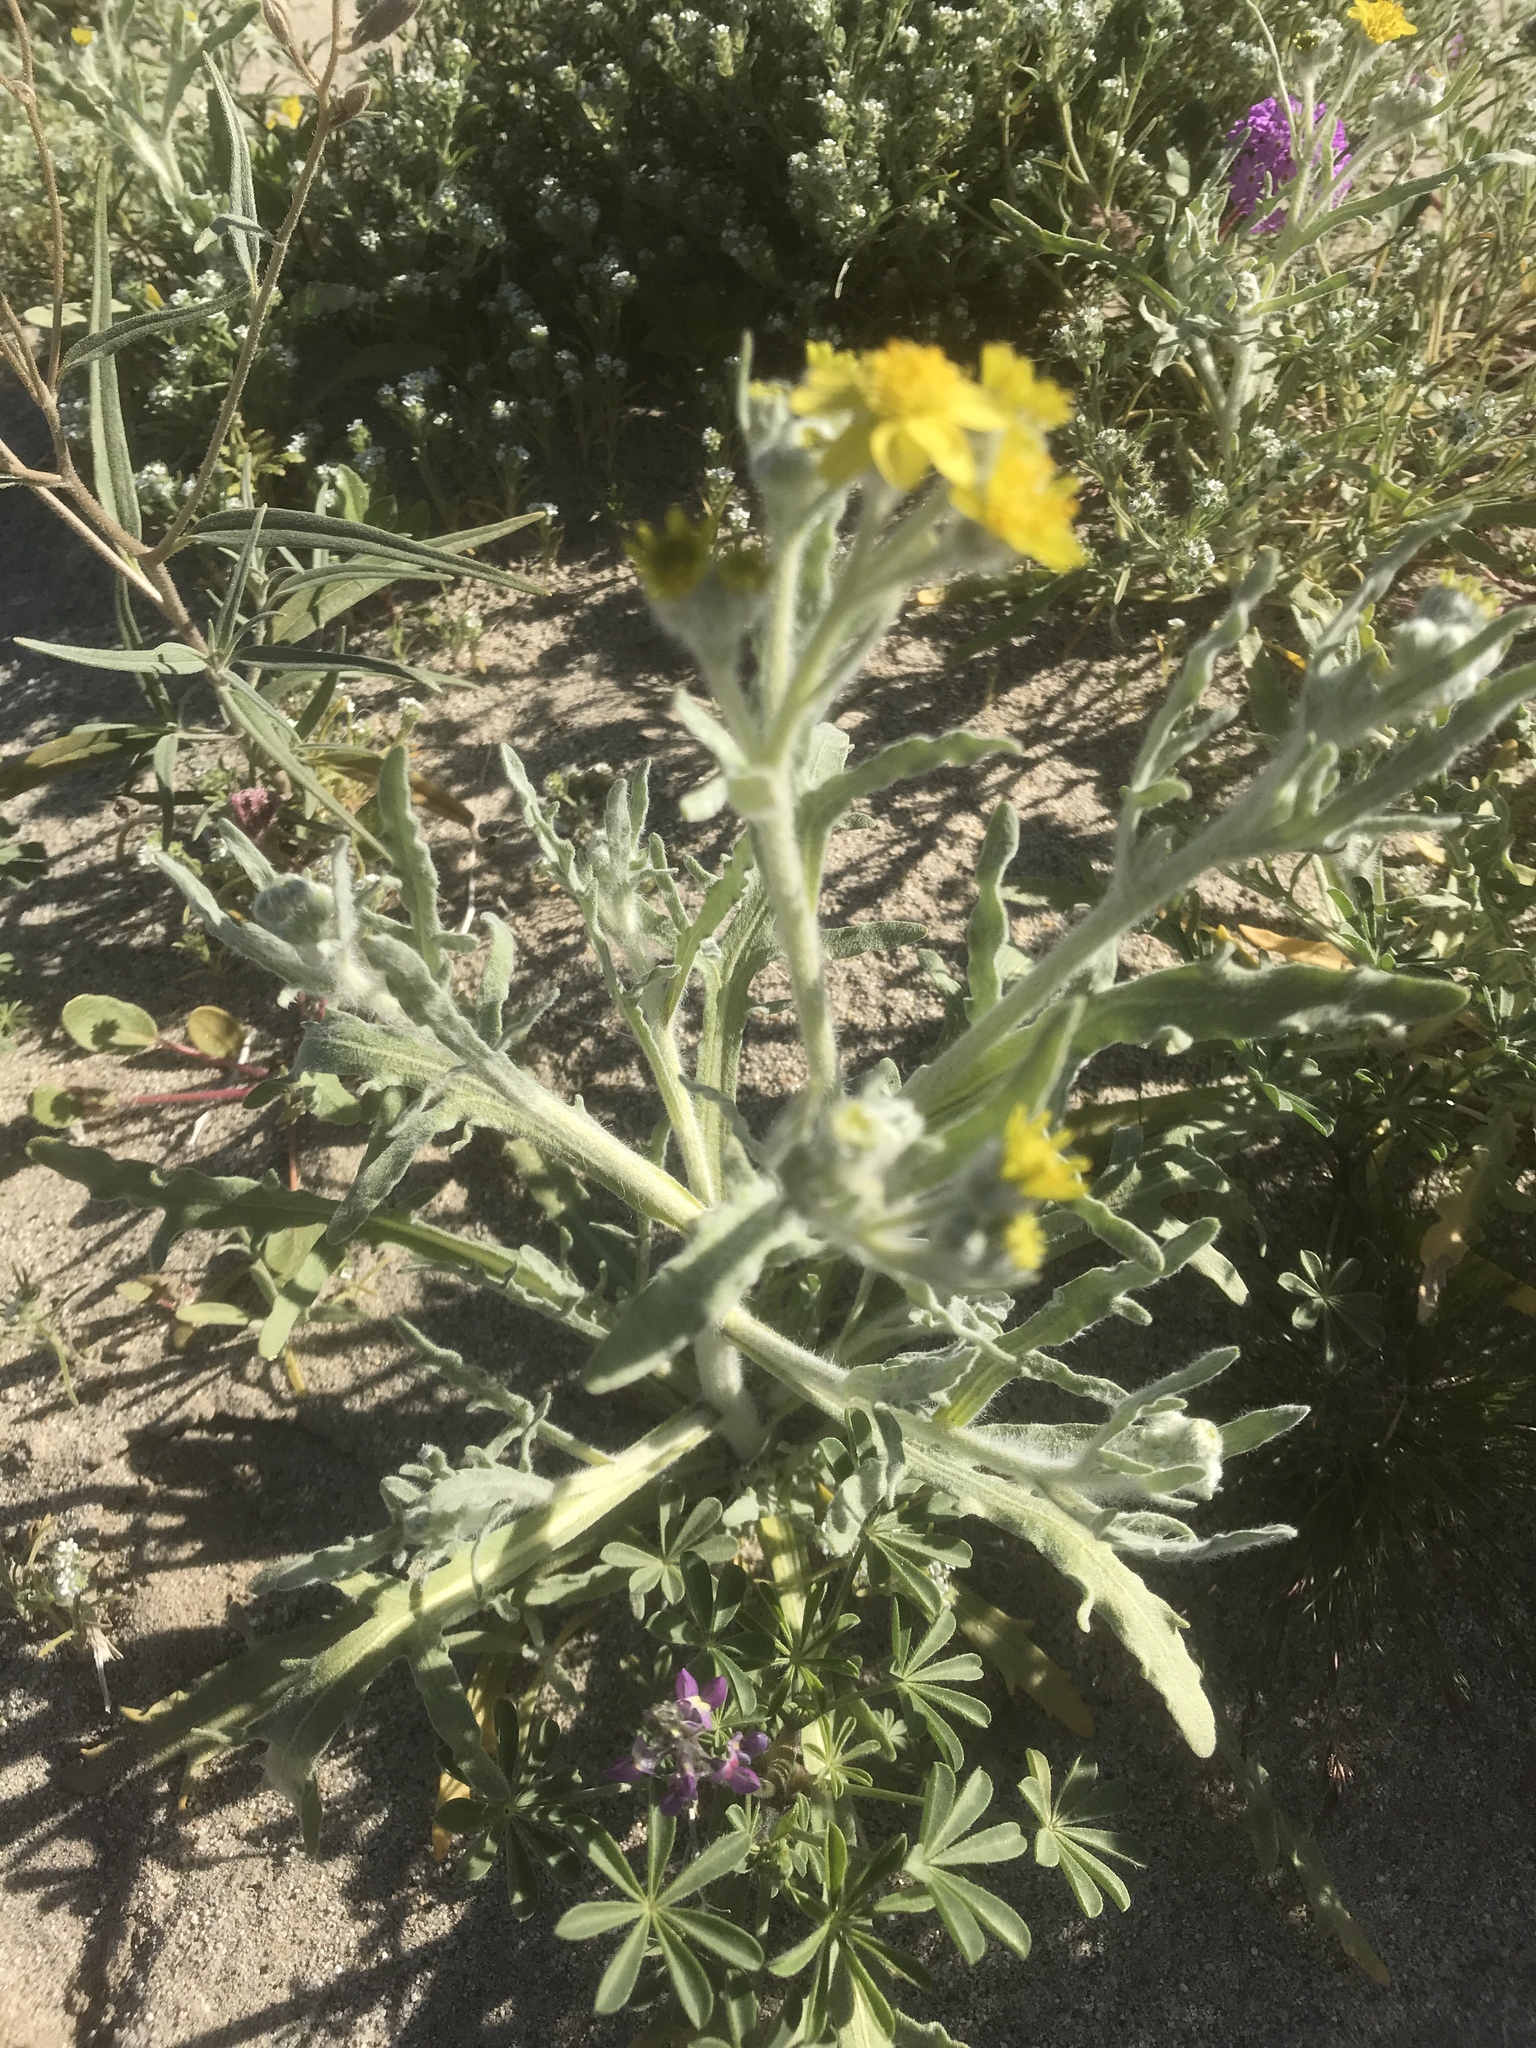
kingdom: Plantae
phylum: Tracheophyta
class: Magnoliopsida
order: Asterales
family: Asteraceae
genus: Baileya
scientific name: Baileya pauciradiata
